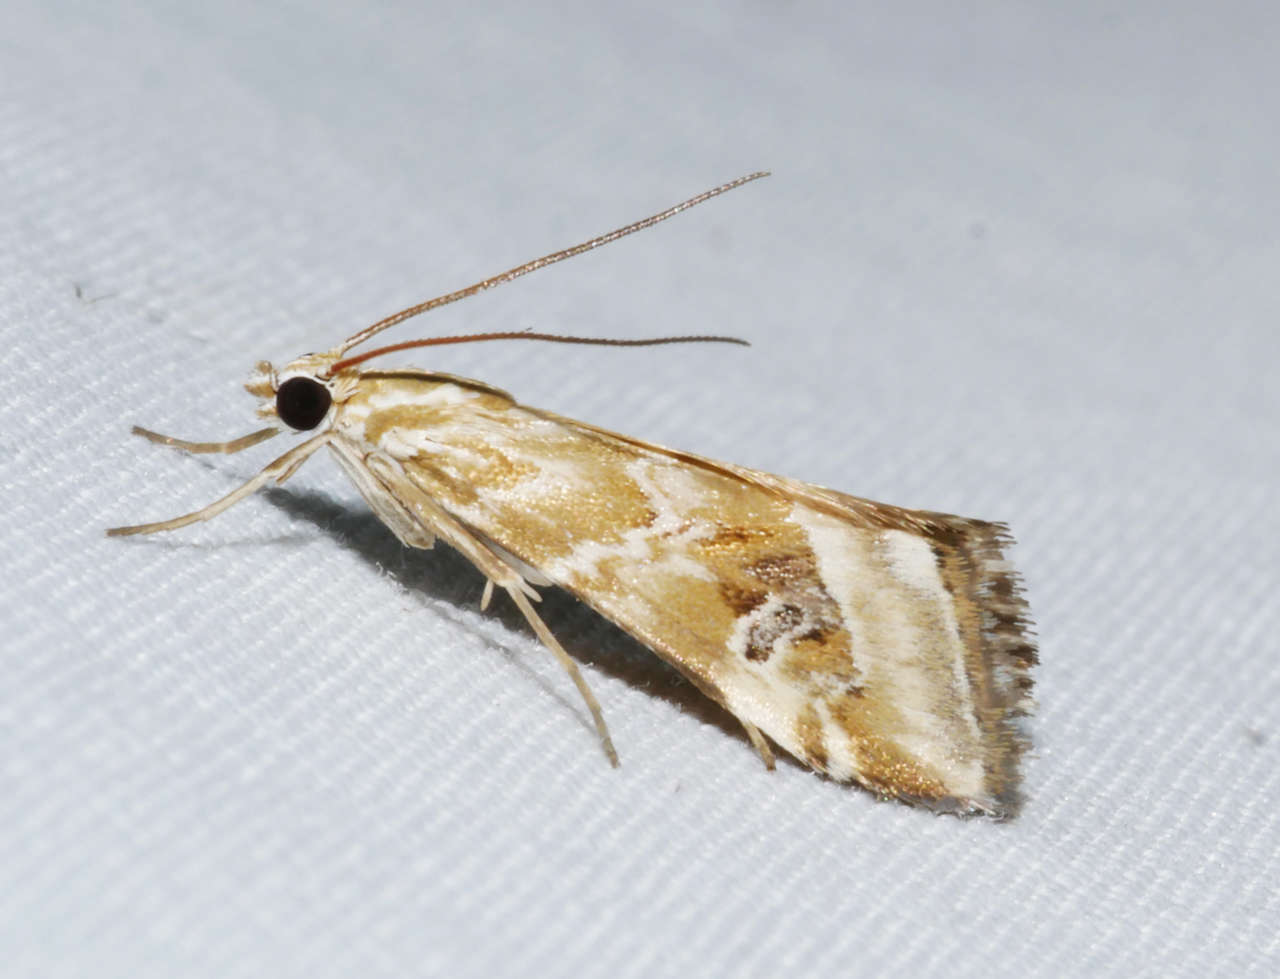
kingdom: Animalia
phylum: Arthropoda
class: Insecta
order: Lepidoptera
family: Crambidae
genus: Hellula
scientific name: Hellula hydralis
